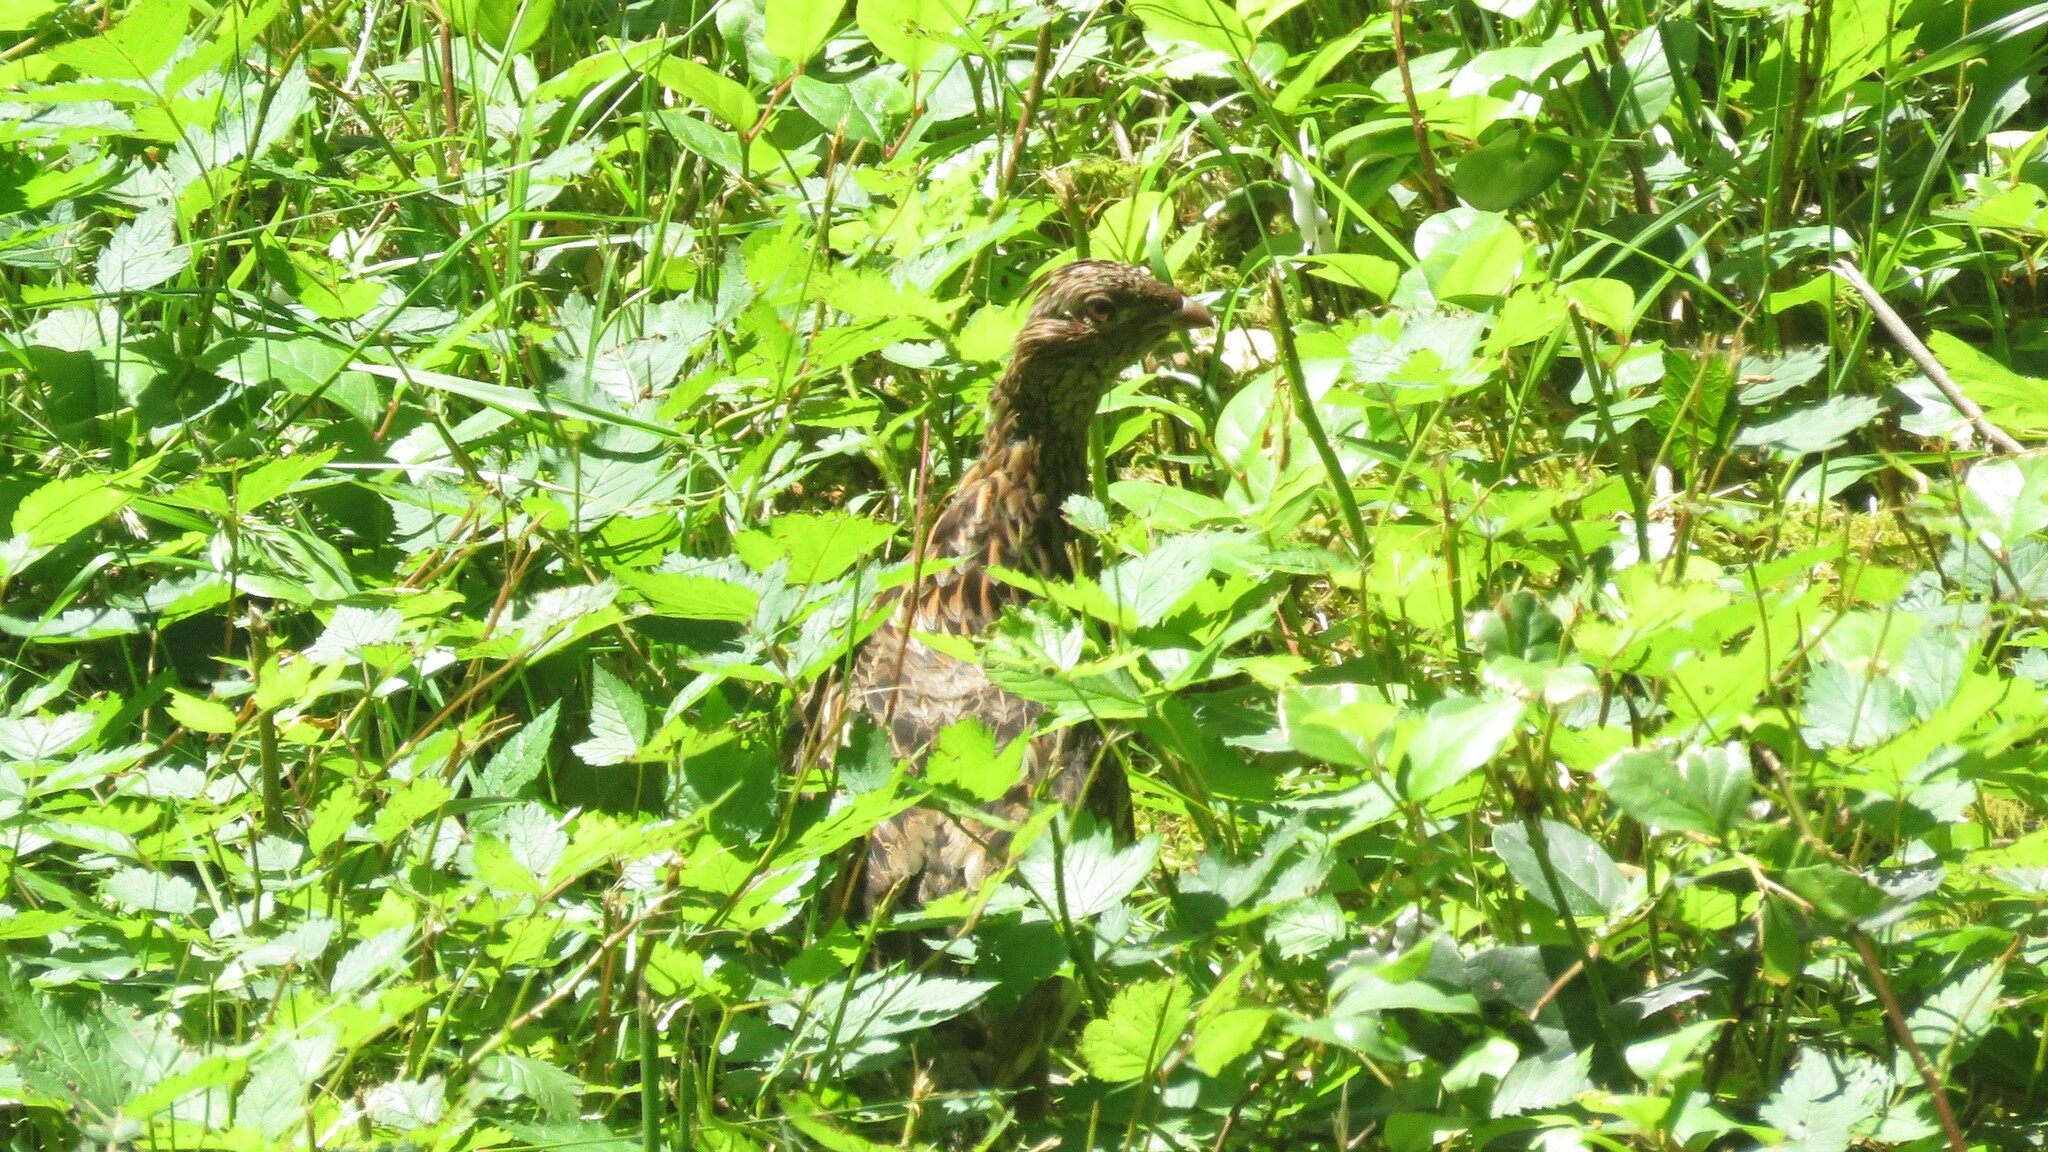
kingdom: Animalia
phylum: Chordata
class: Aves
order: Galliformes
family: Phasianidae
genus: Bonasa
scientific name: Bonasa umbellus
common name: Ruffed grouse
